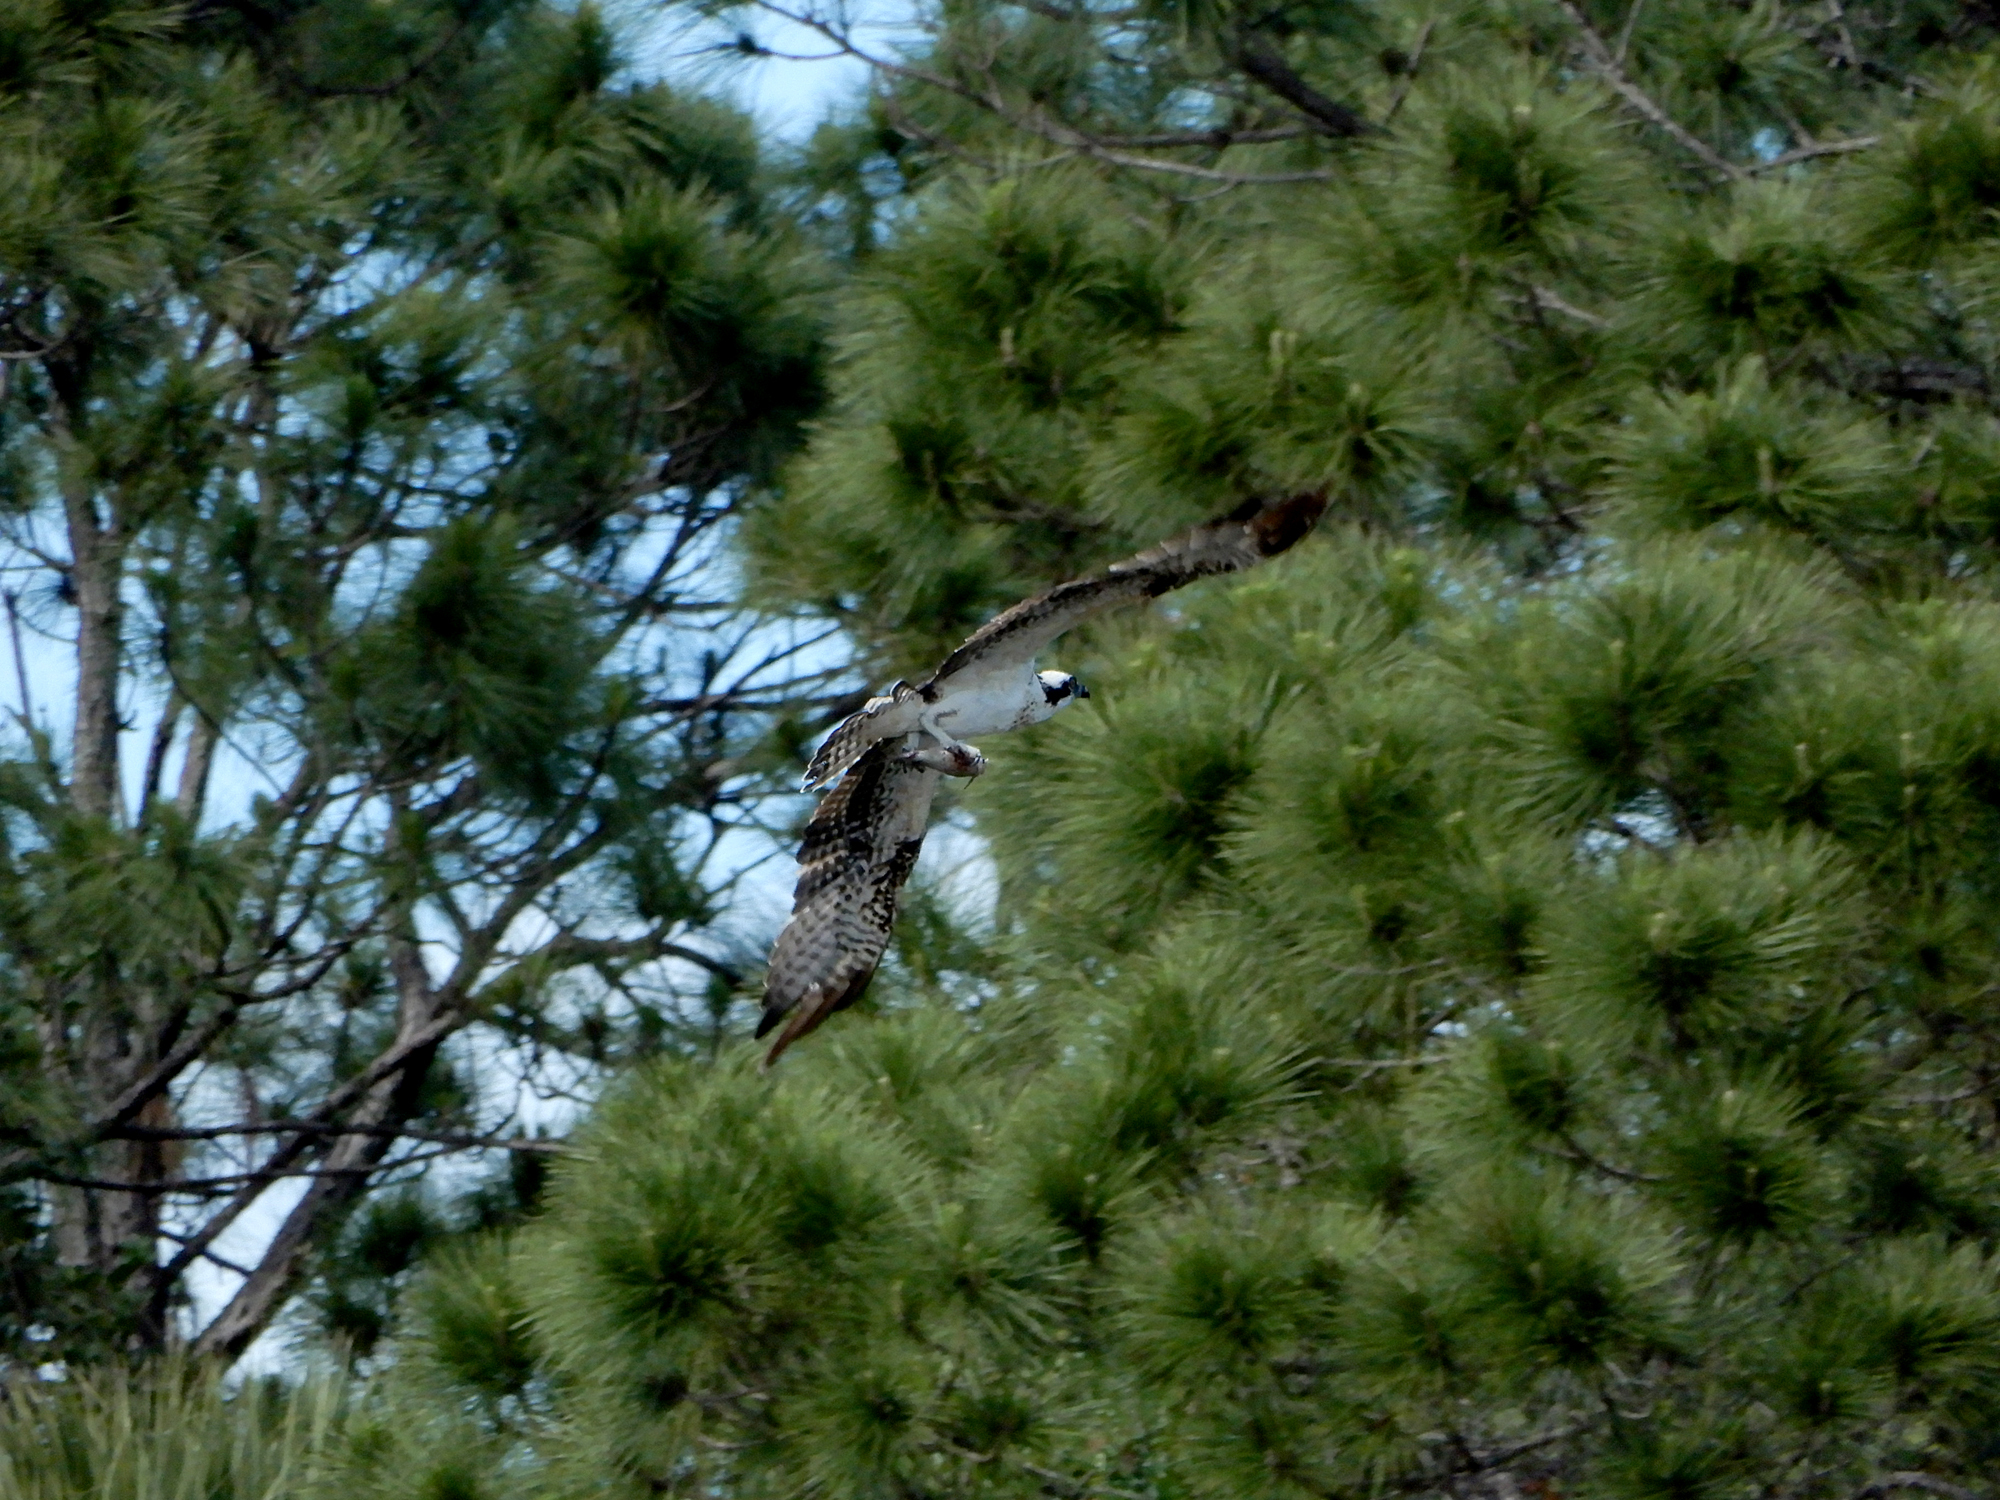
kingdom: Animalia
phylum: Chordata
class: Aves
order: Accipitriformes
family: Pandionidae
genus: Pandion
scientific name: Pandion haliaetus
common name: Osprey
